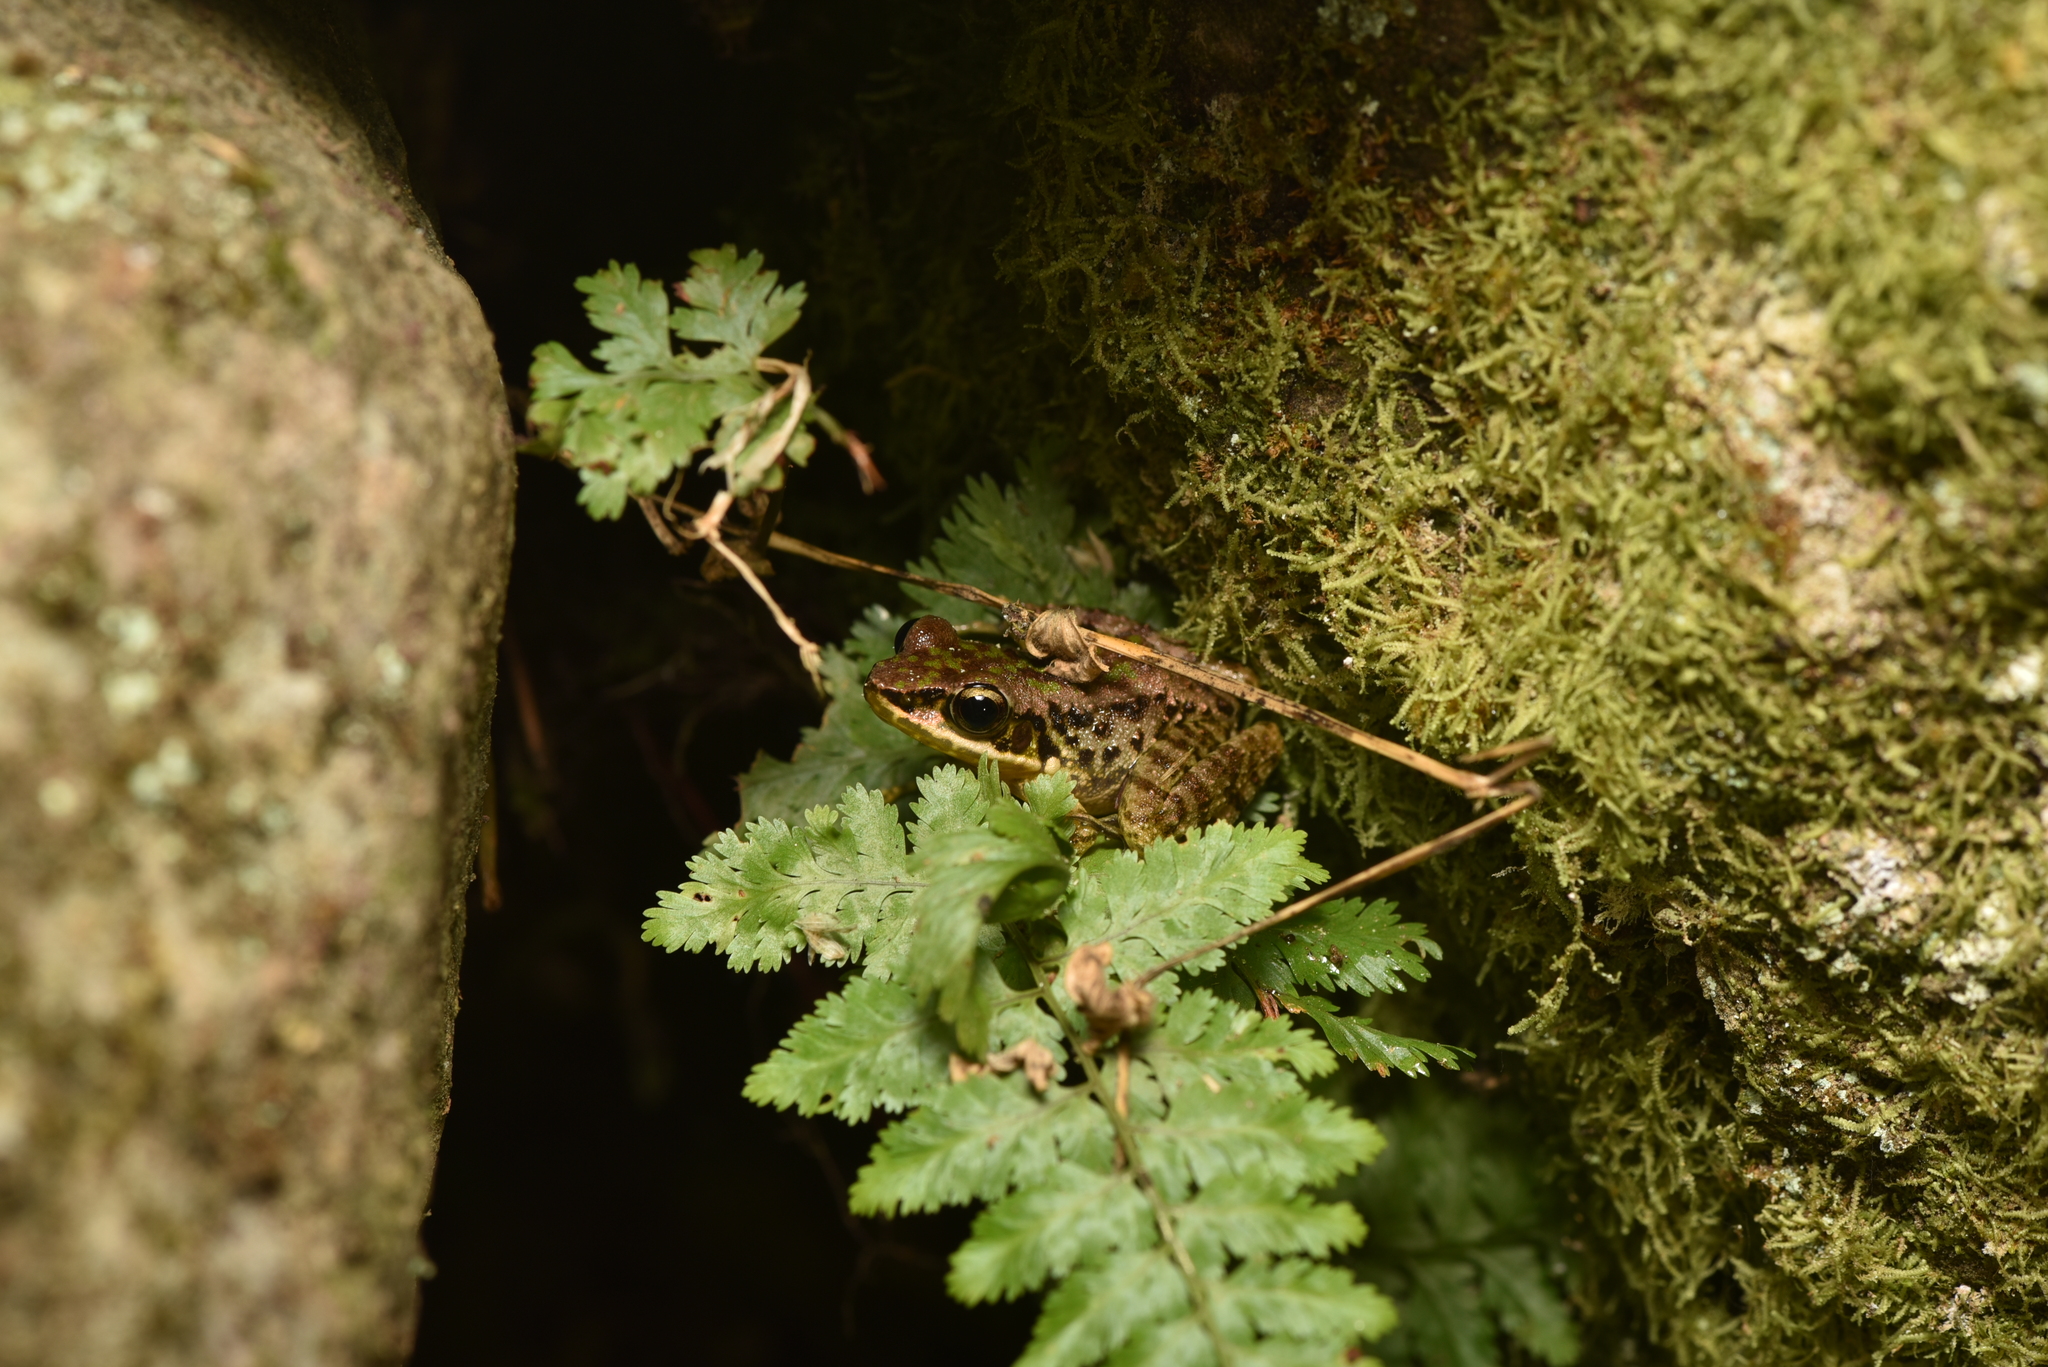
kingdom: Animalia
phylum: Chordata
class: Amphibia
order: Anura
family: Ranidae
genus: Odorrana
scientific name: Odorrana swinhoana
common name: Bangkimtsing frog
